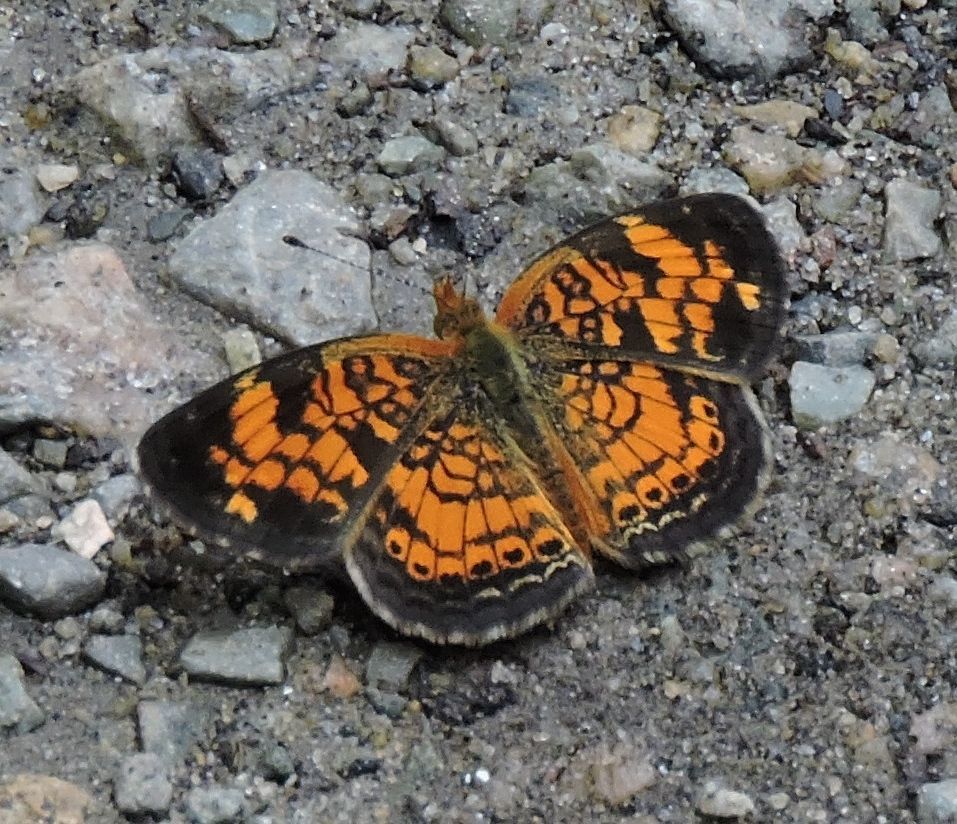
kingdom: Animalia
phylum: Arthropoda
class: Insecta
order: Lepidoptera
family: Nymphalidae
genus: Phyciodes
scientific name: Phyciodes tharos
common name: Pearl crescent
